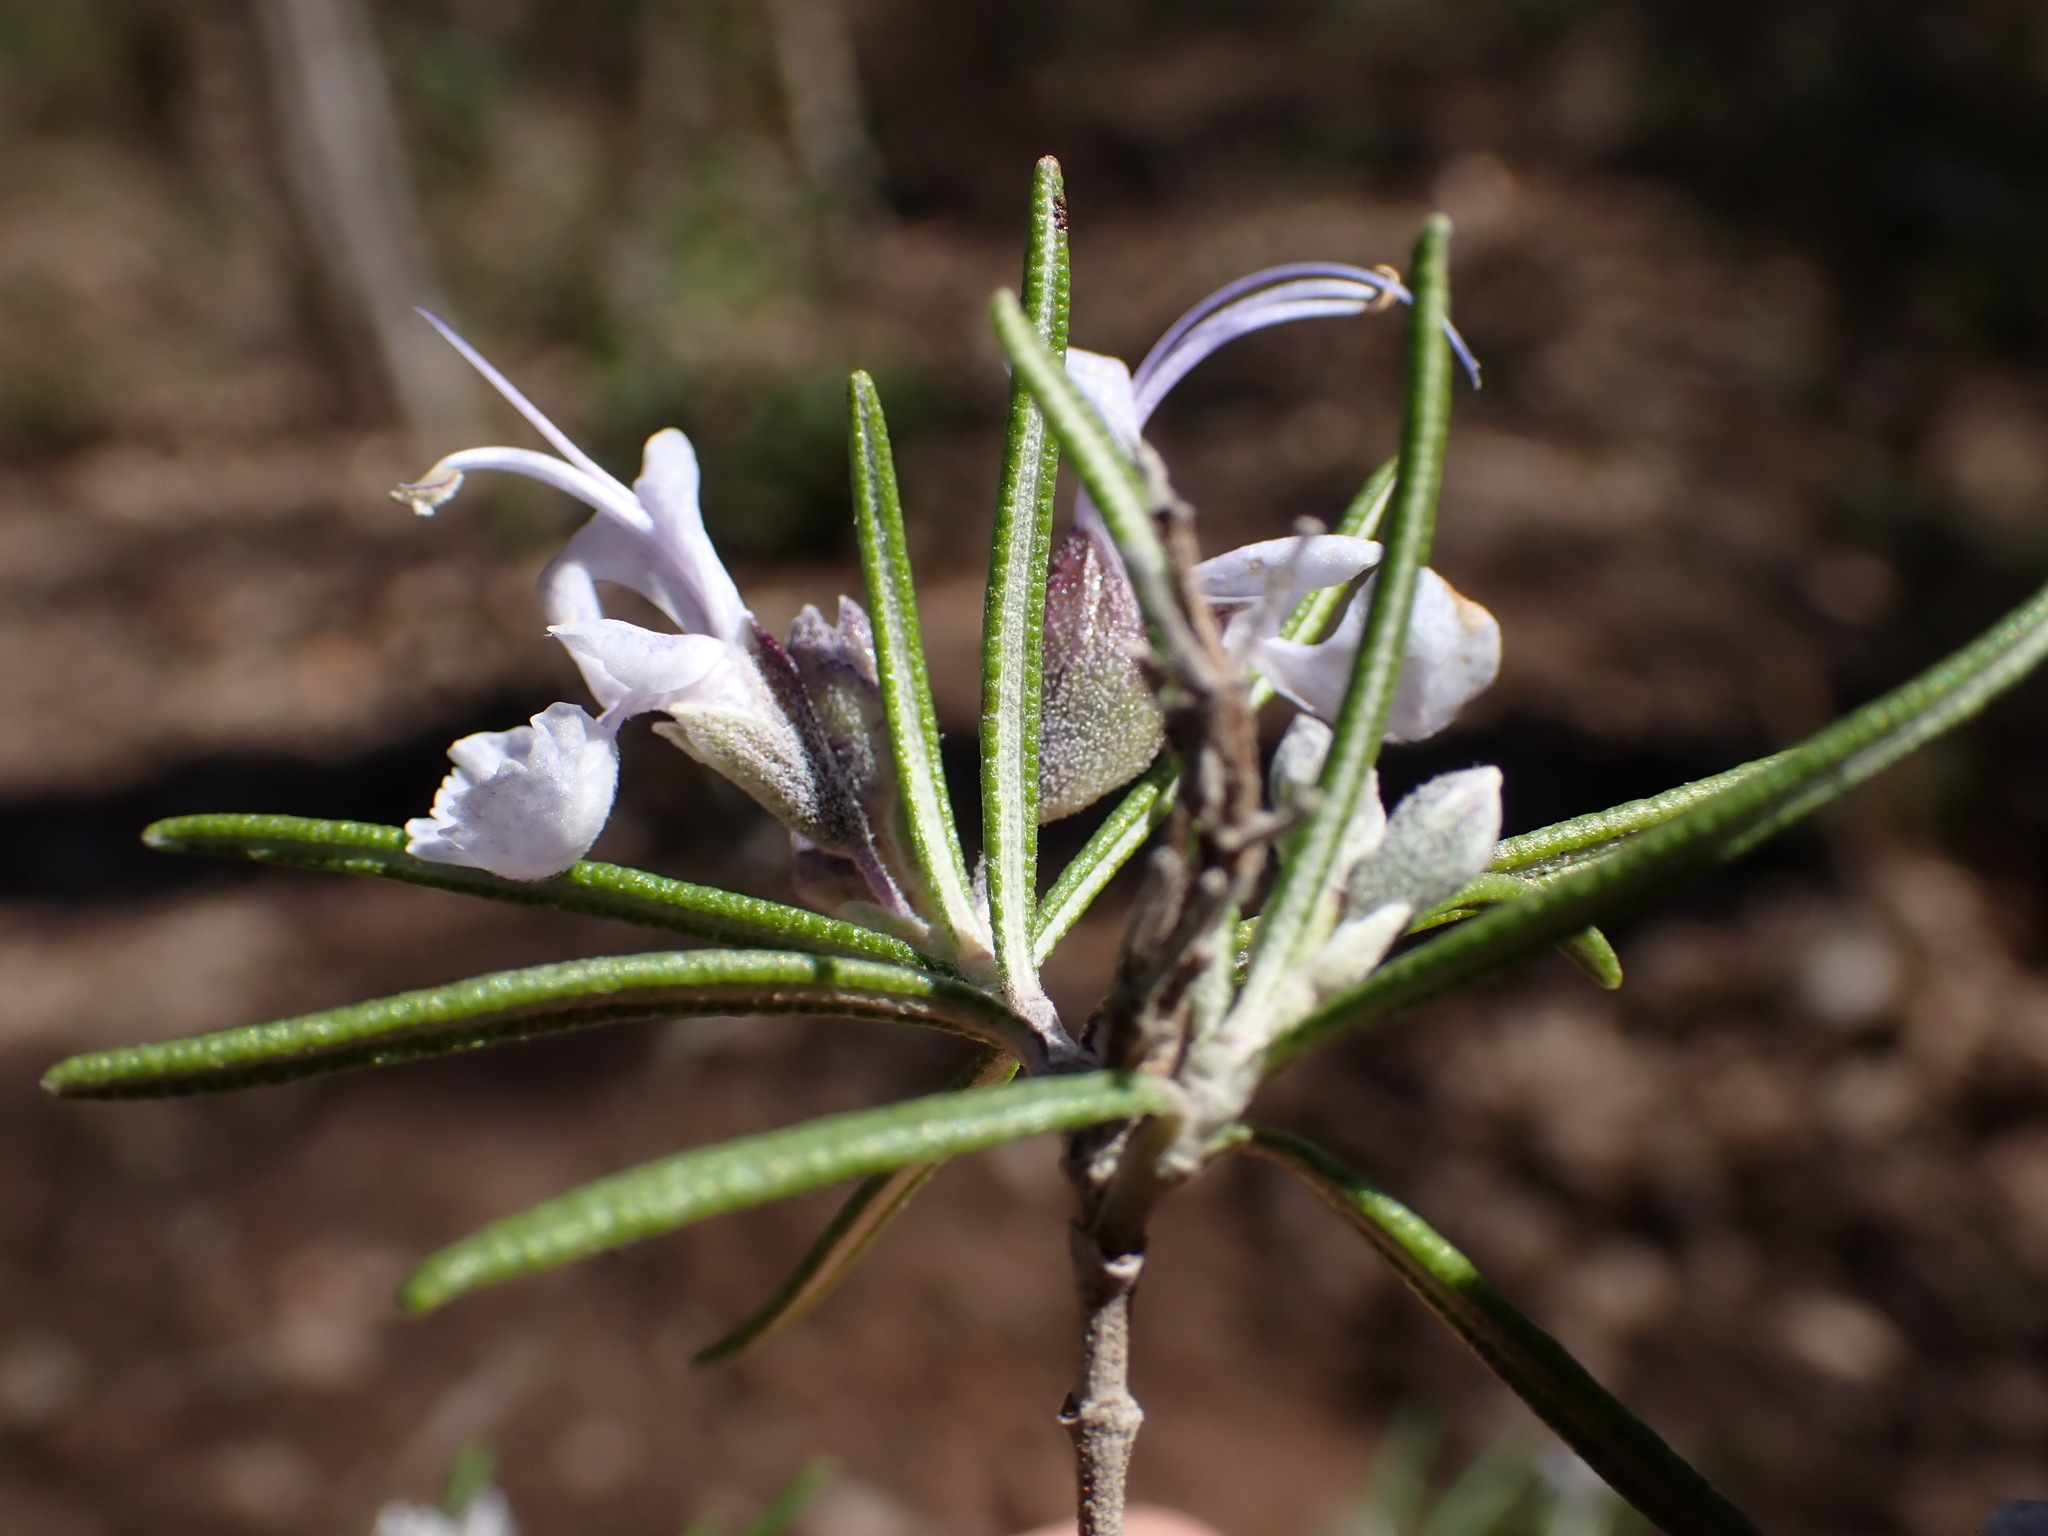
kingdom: Plantae
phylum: Tracheophyta
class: Magnoliopsida
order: Lamiales
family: Lamiaceae
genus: Salvia
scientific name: Salvia rosmarinus
